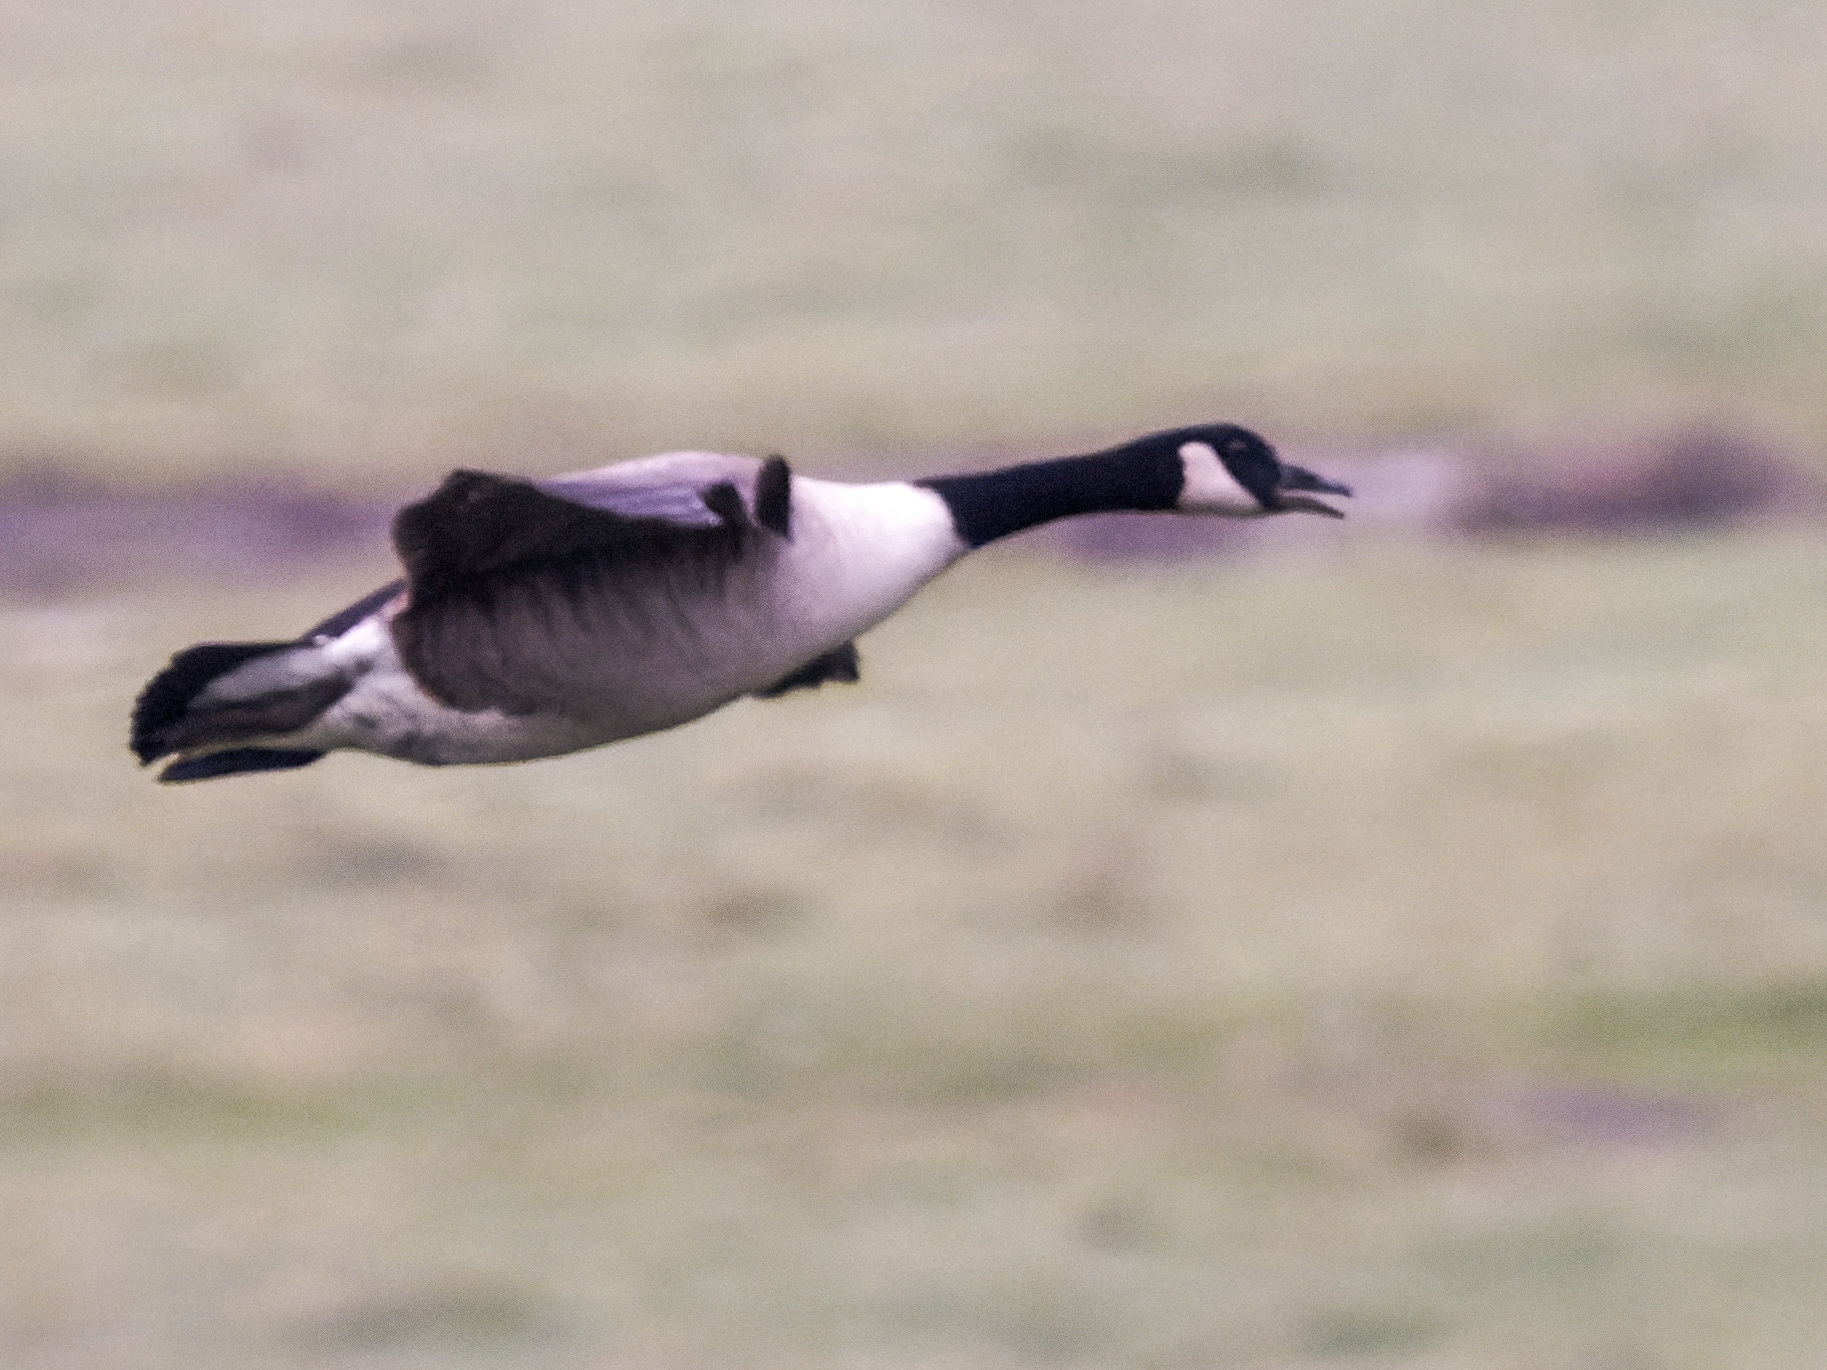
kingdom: Animalia
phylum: Chordata
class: Aves
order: Anseriformes
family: Anatidae
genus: Branta
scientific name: Branta canadensis
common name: Canada goose
